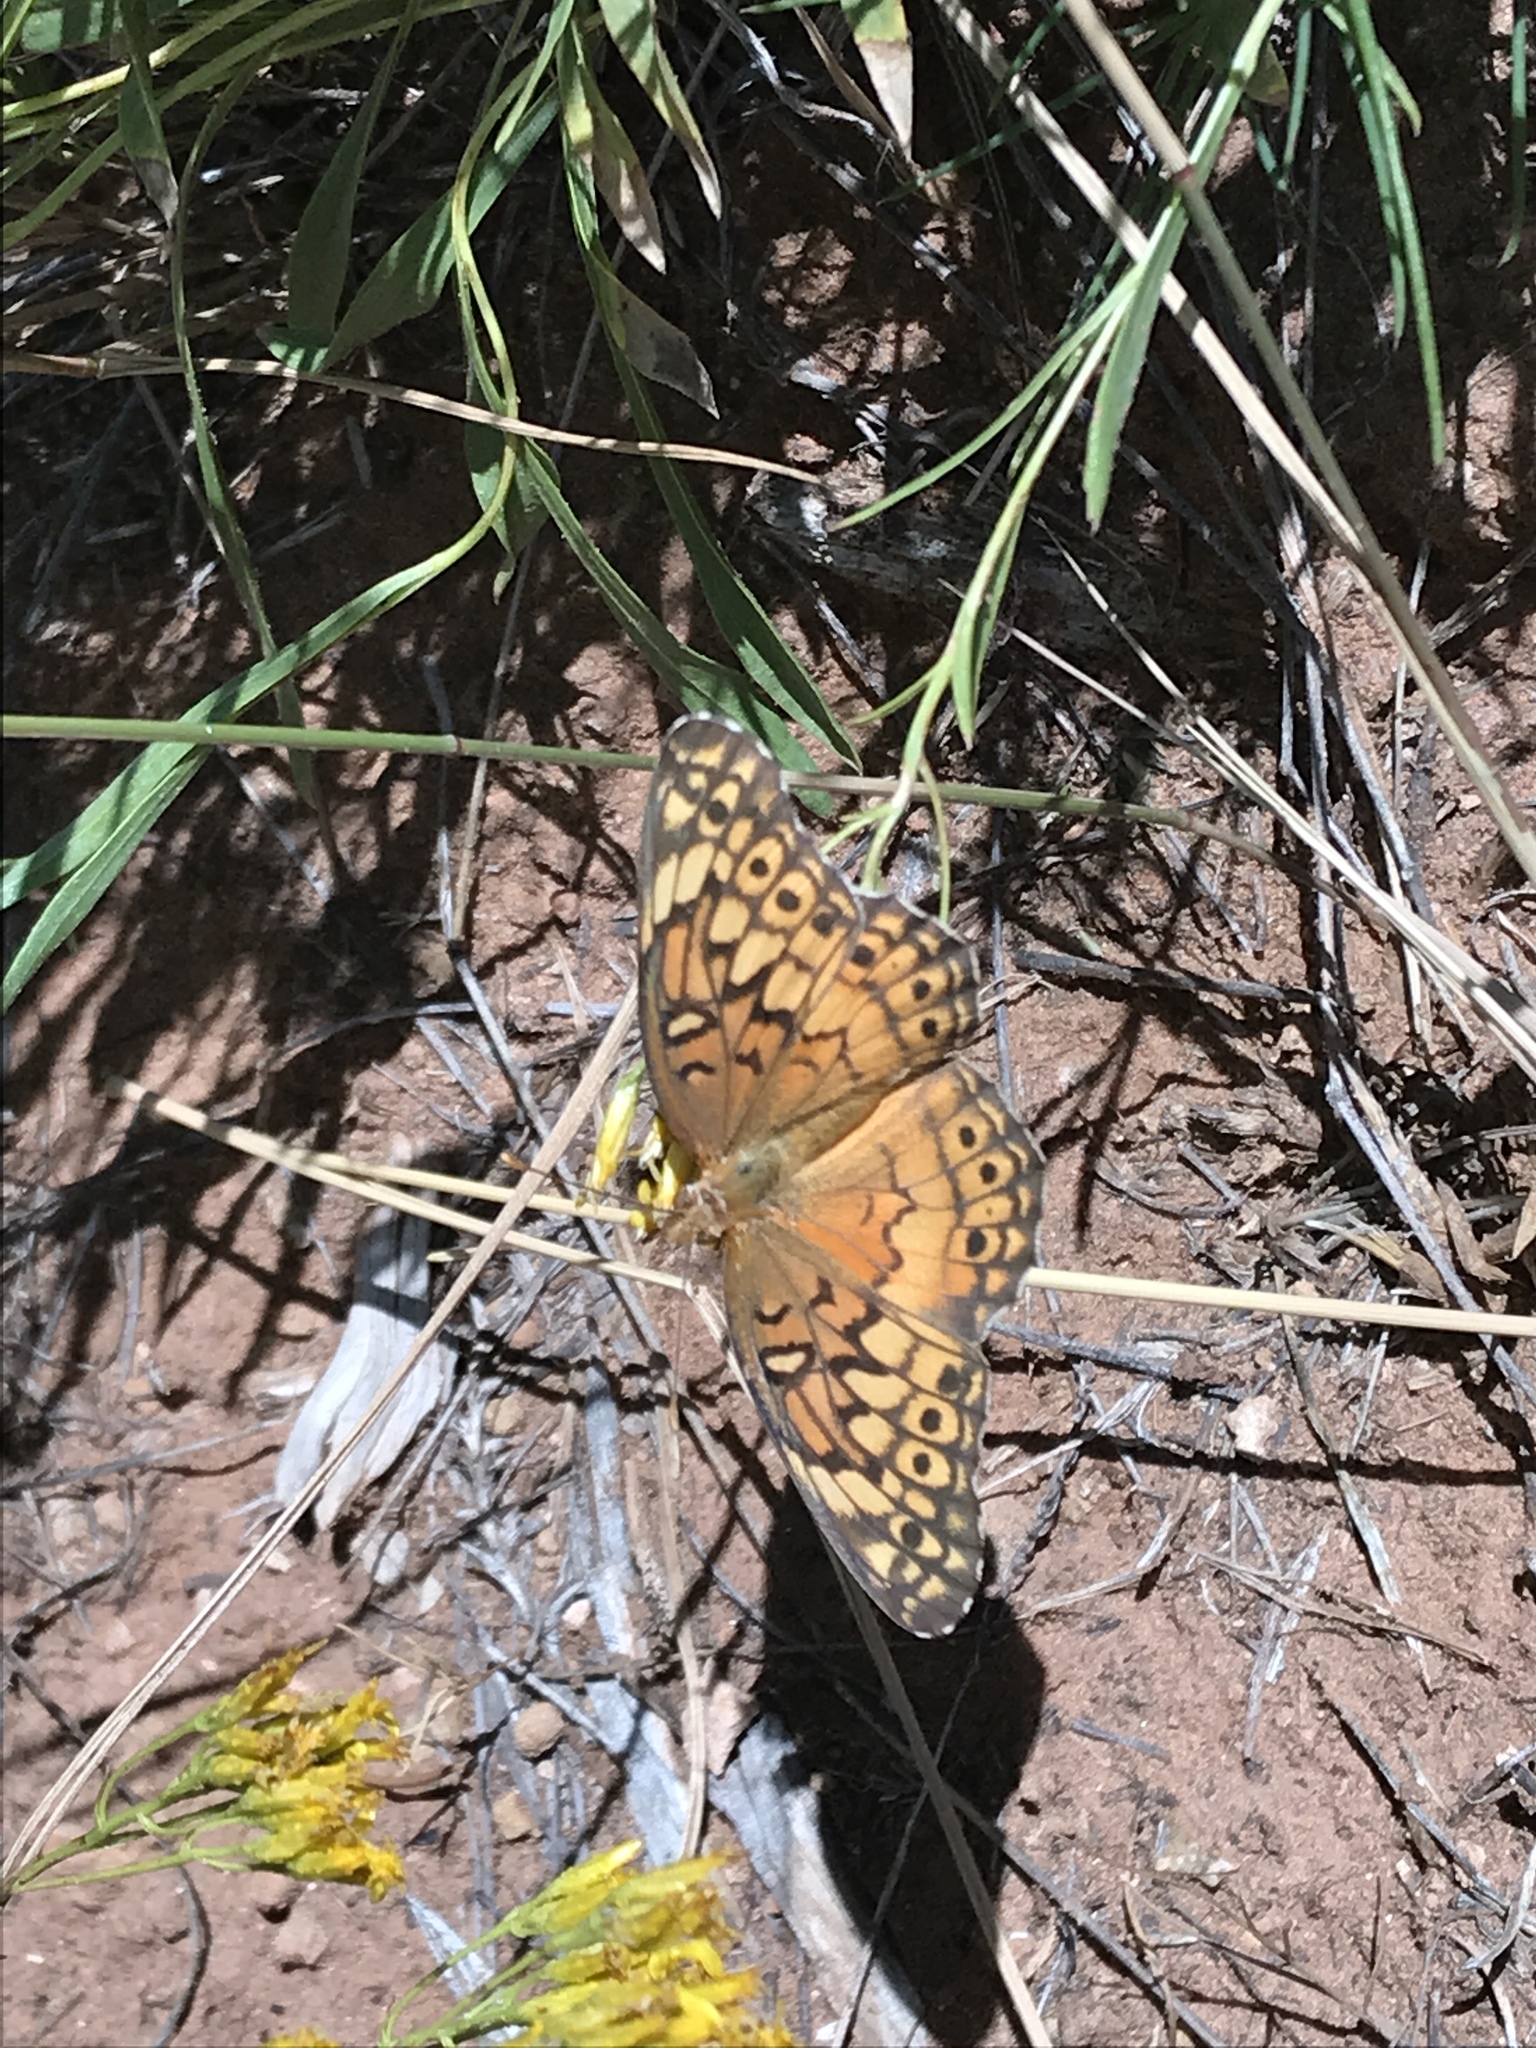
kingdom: Animalia
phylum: Arthropoda
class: Insecta
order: Lepidoptera
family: Nymphalidae
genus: Euptoieta
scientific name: Euptoieta claudia
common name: Variegated fritillary
